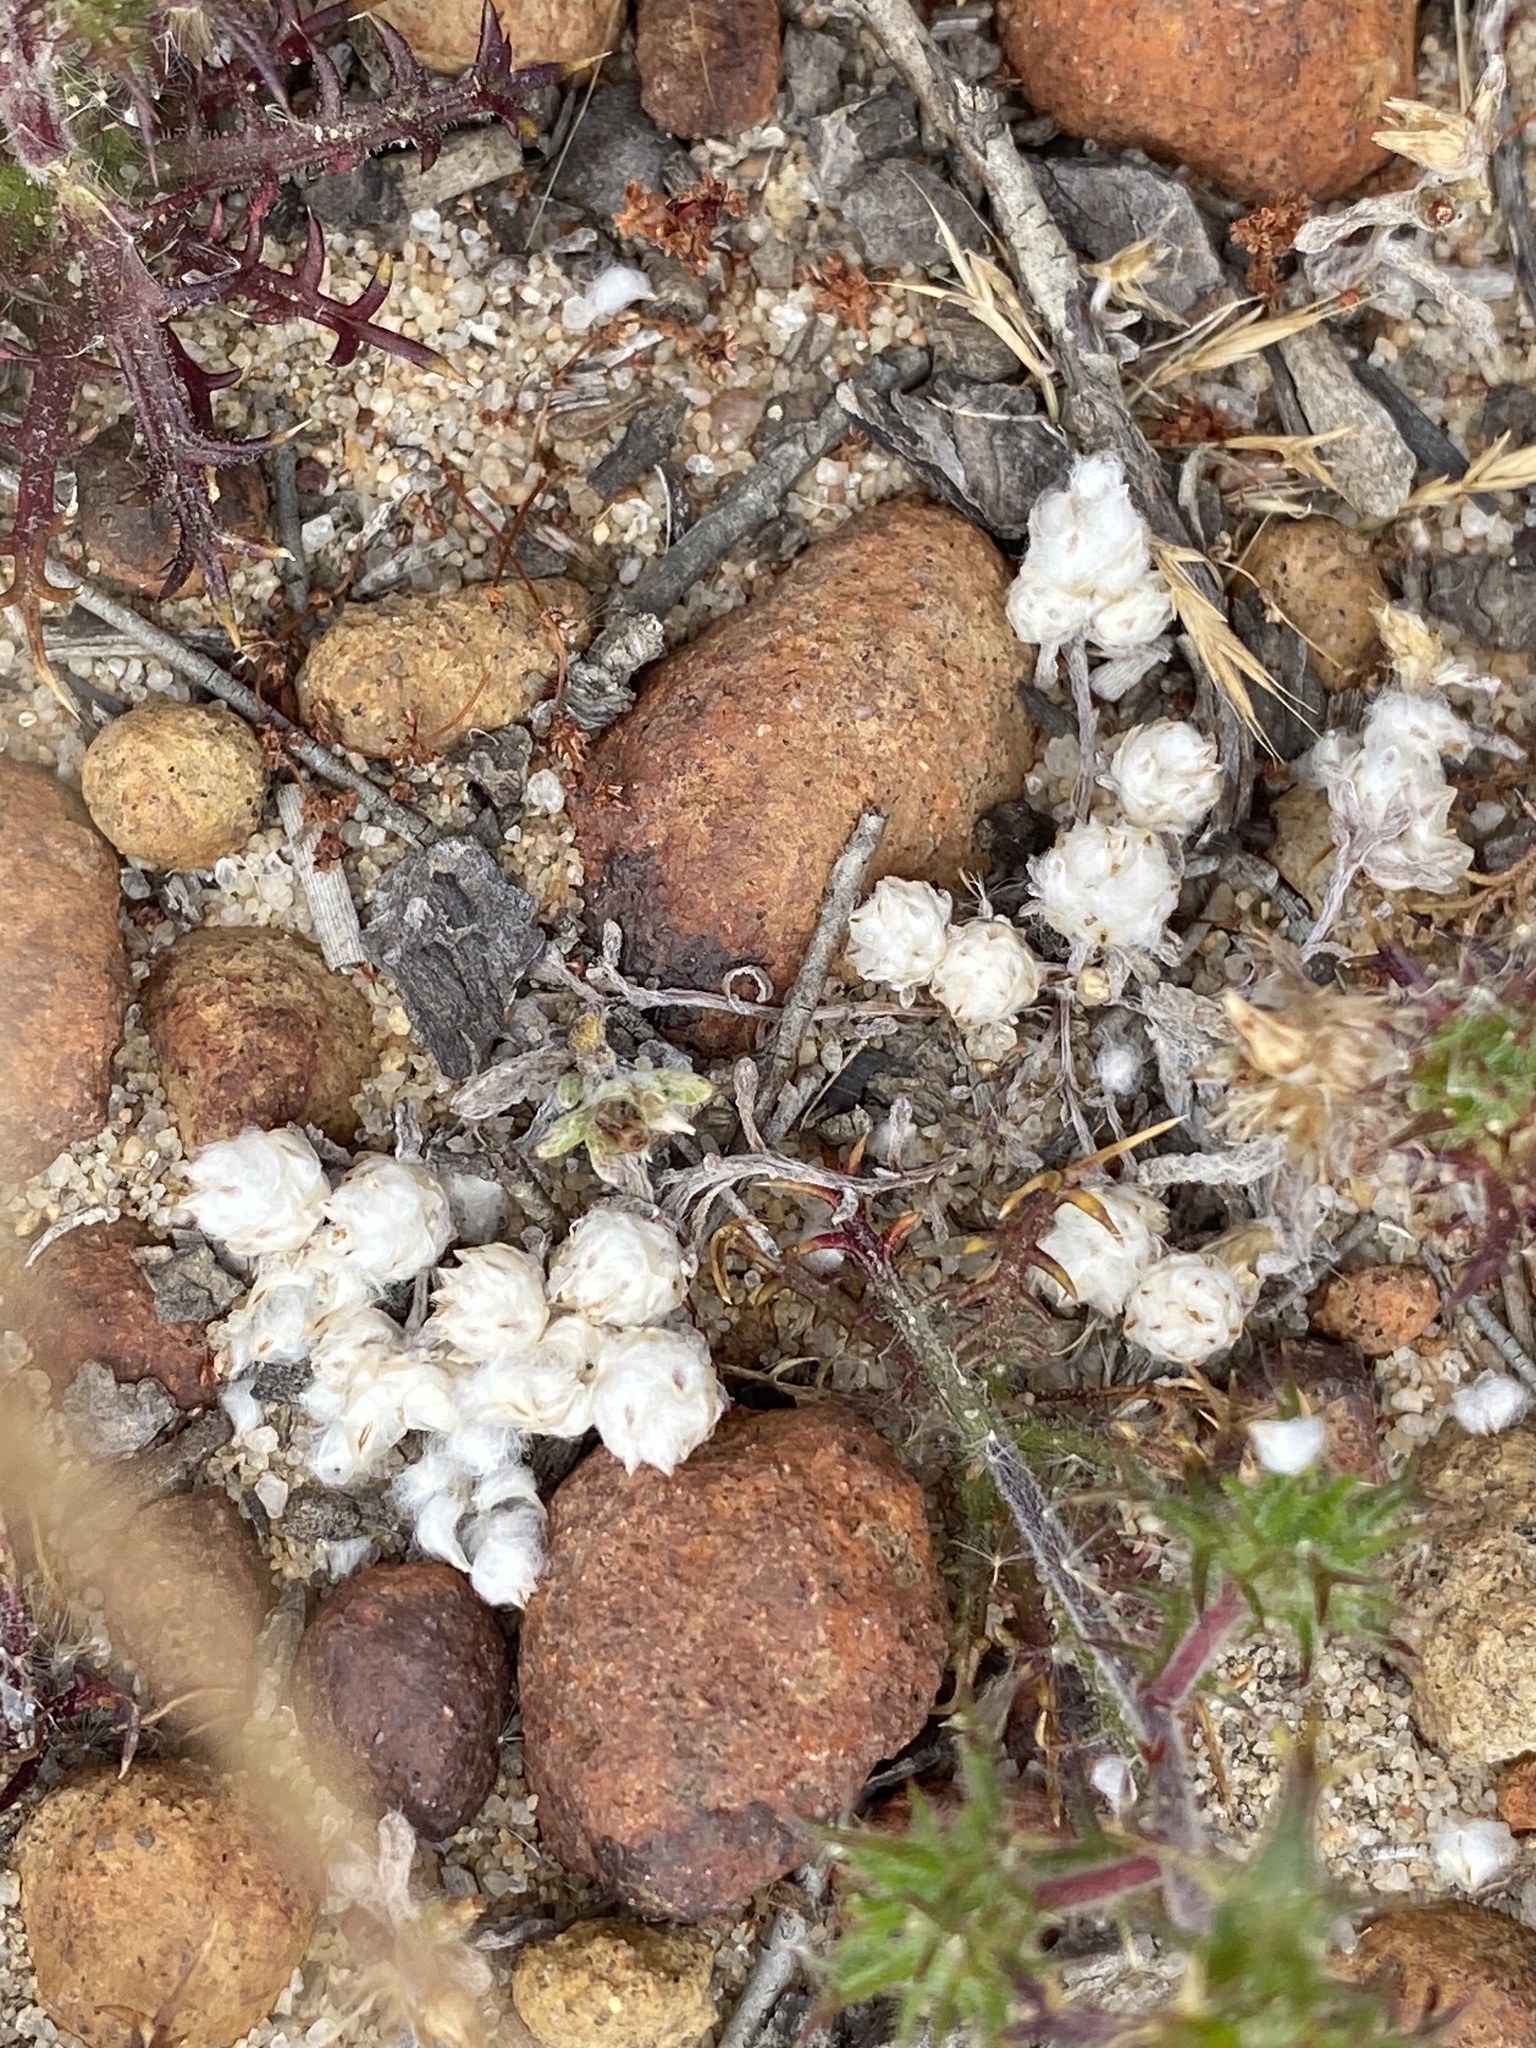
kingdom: Plantae
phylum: Tracheophyta
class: Magnoliopsida
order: Asterales
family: Asteraceae
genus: Stylocline
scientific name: Stylocline gnaphaloides
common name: Everlasting nest-straw
